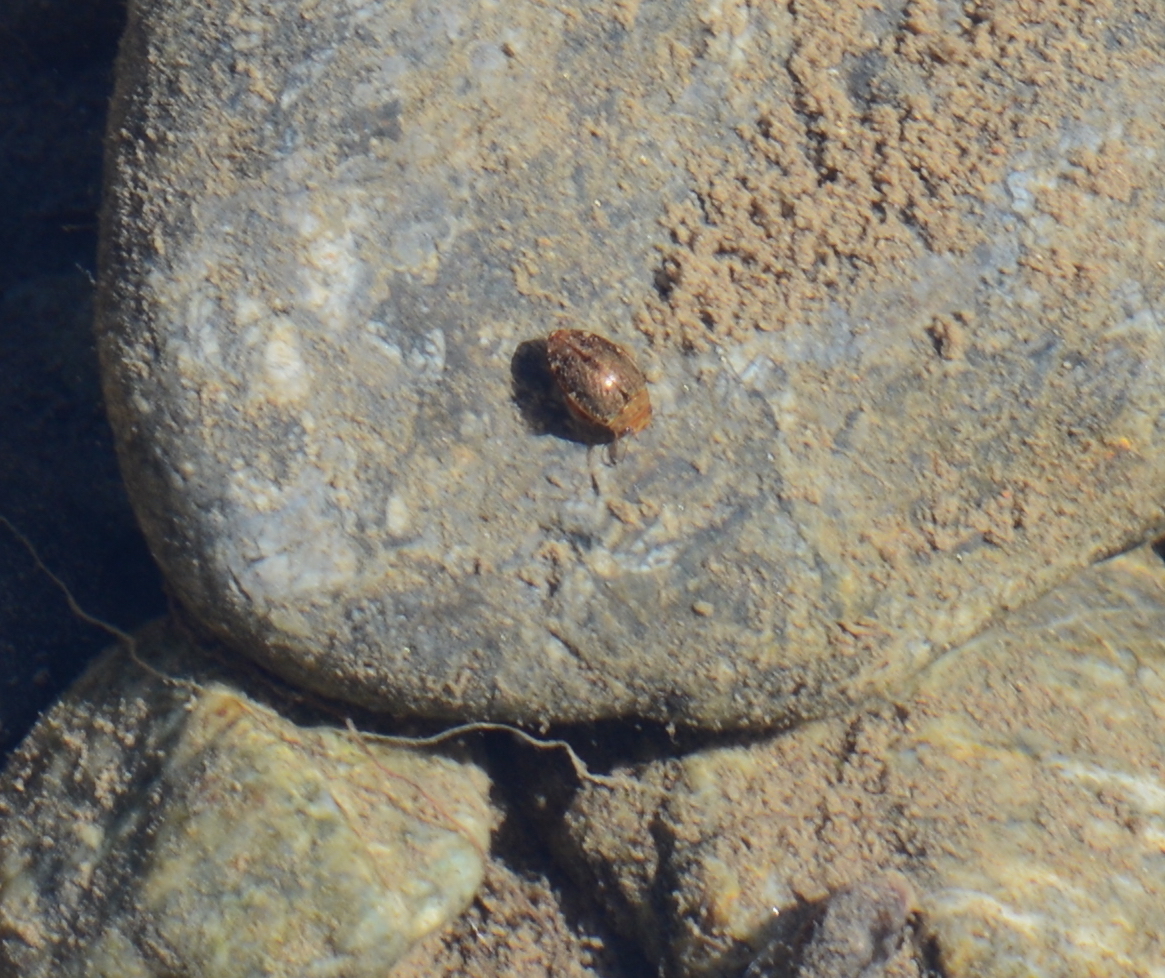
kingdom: Animalia
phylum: Arthropoda
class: Insecta
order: Coleoptera
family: Dytiscidae
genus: Laccophilus
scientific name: Laccophilus biguttatus
